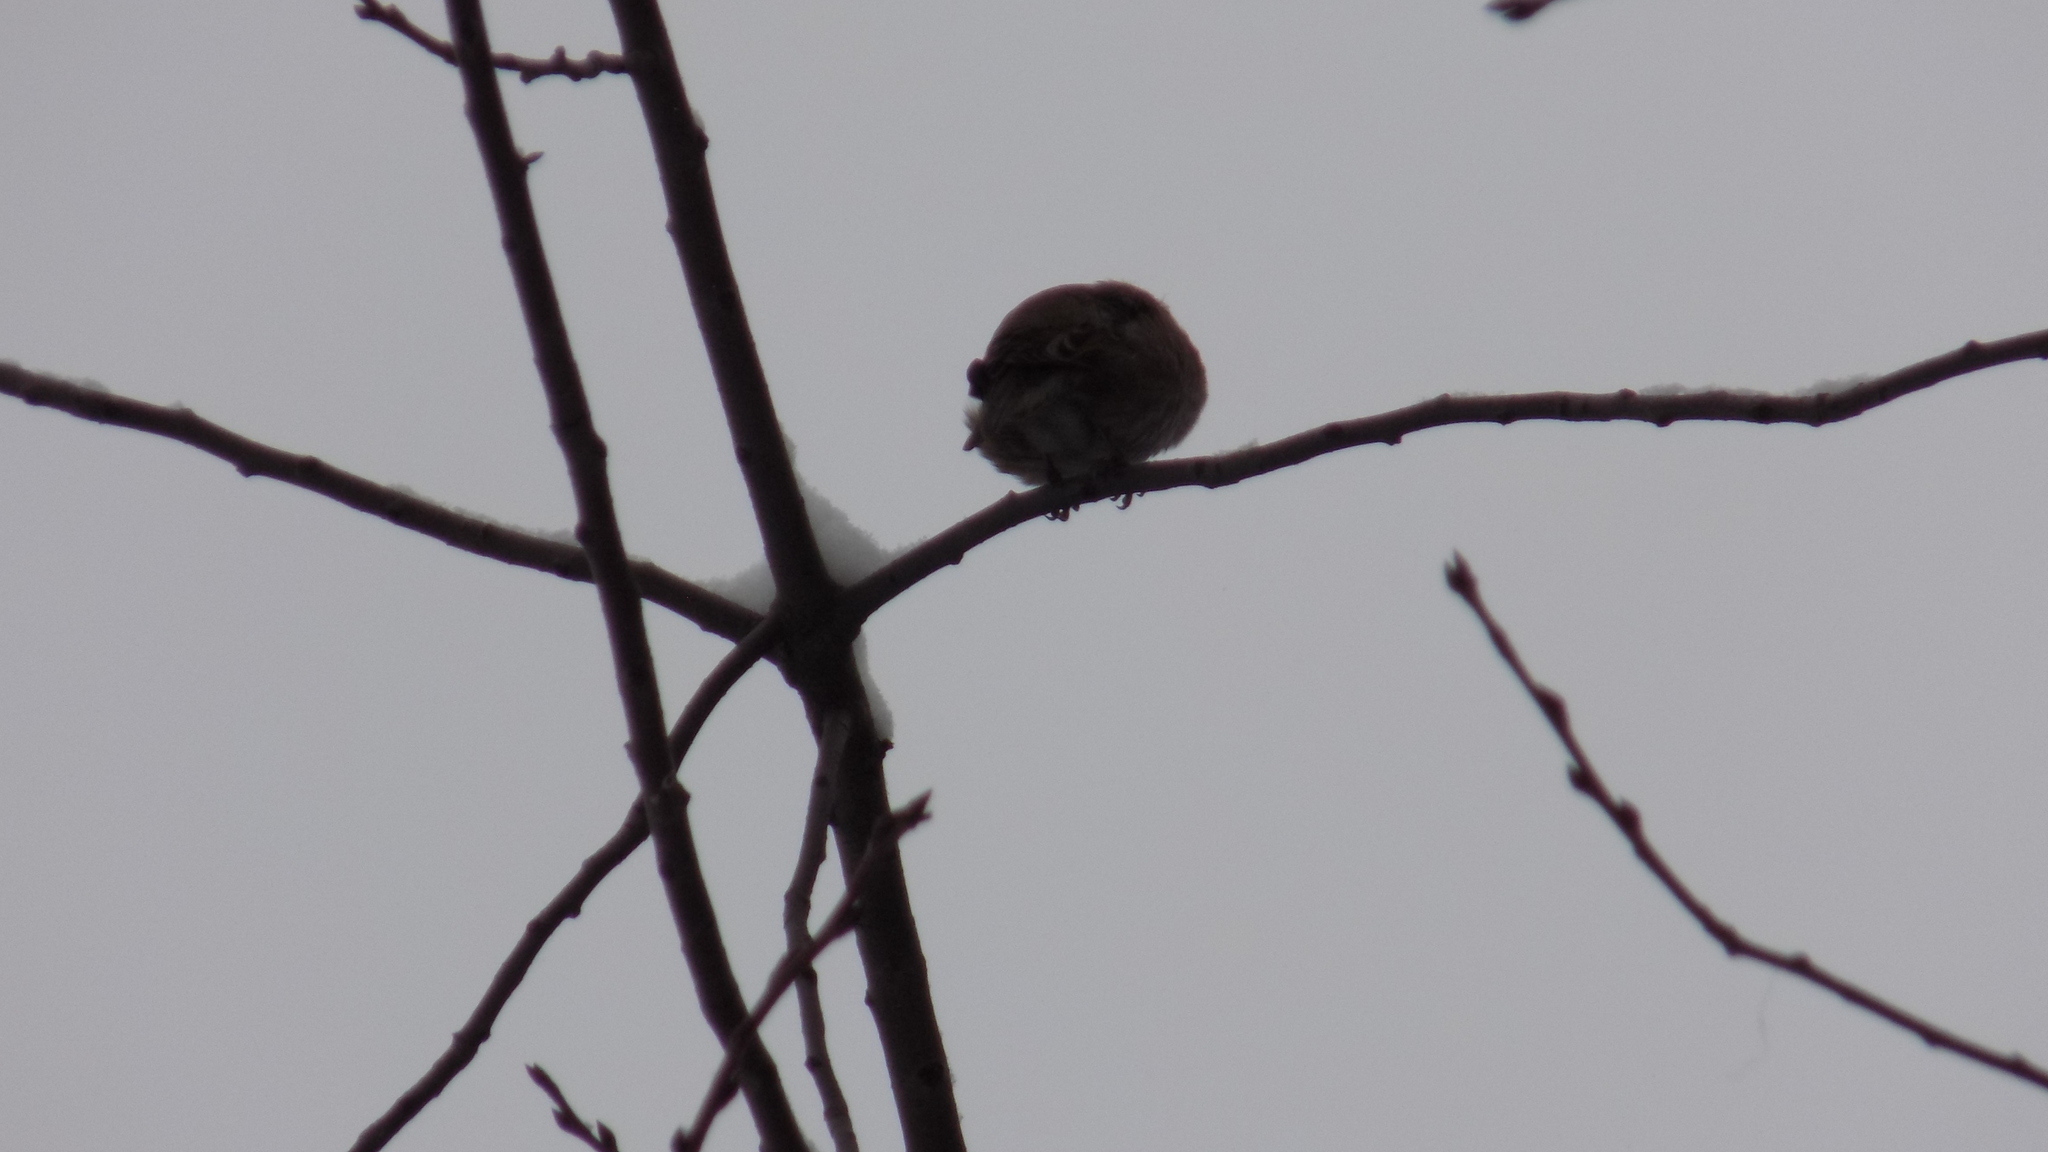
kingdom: Animalia
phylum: Chordata
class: Aves
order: Passeriformes
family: Fringillidae
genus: Coccothraustes
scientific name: Coccothraustes coccothraustes
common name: Hawfinch
